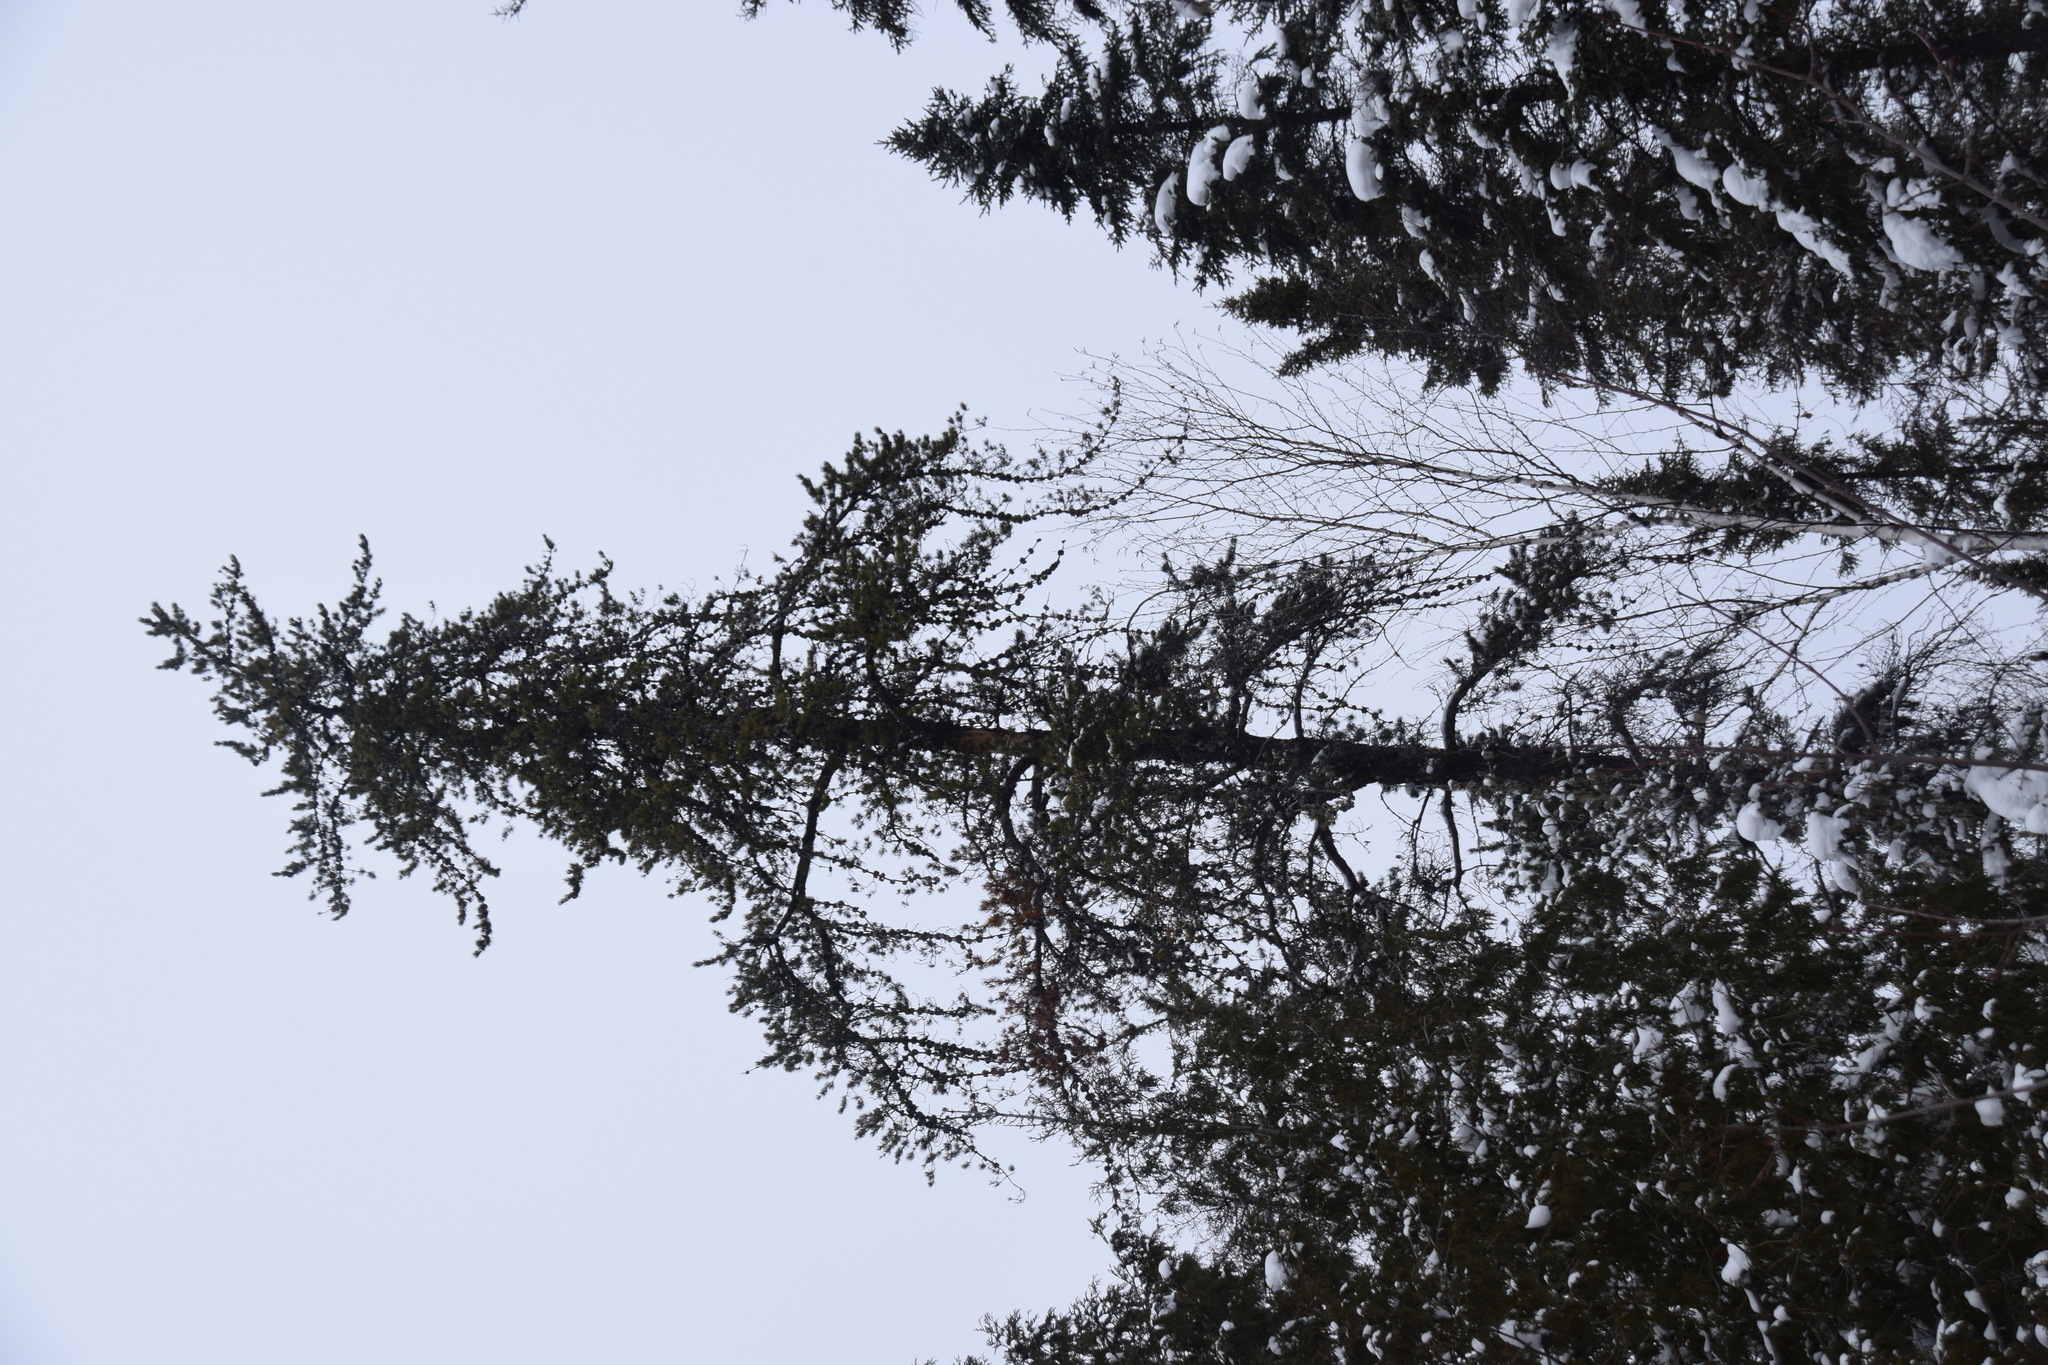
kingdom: Plantae
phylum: Tracheophyta
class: Pinopsida
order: Pinales
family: Pinaceae
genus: Pinus
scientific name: Pinus banksiana
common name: Jack pine
